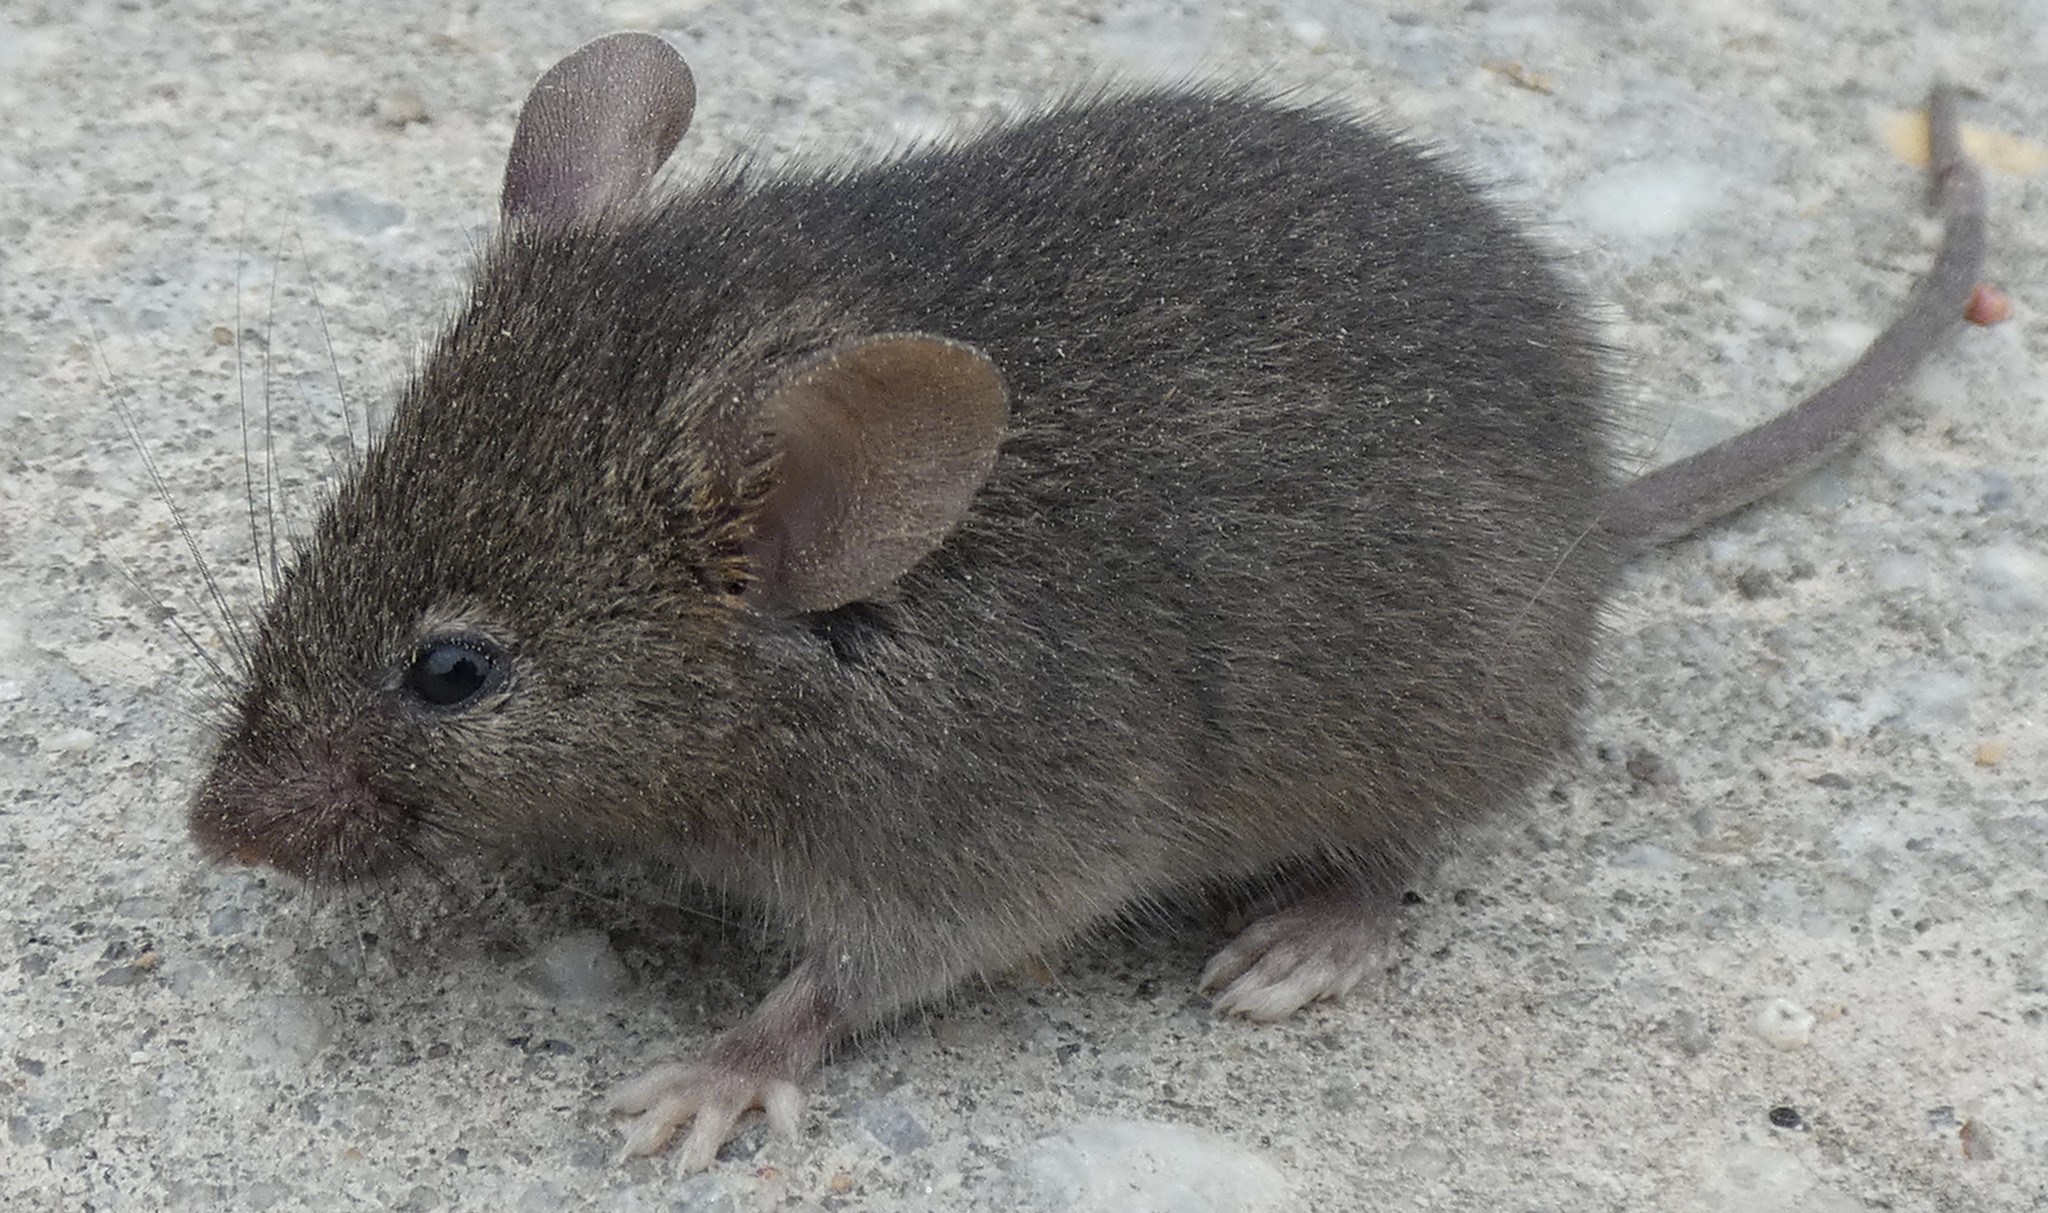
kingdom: Animalia
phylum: Chordata
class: Mammalia
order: Rodentia
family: Muridae
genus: Mus
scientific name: Mus musculus
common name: House mouse
